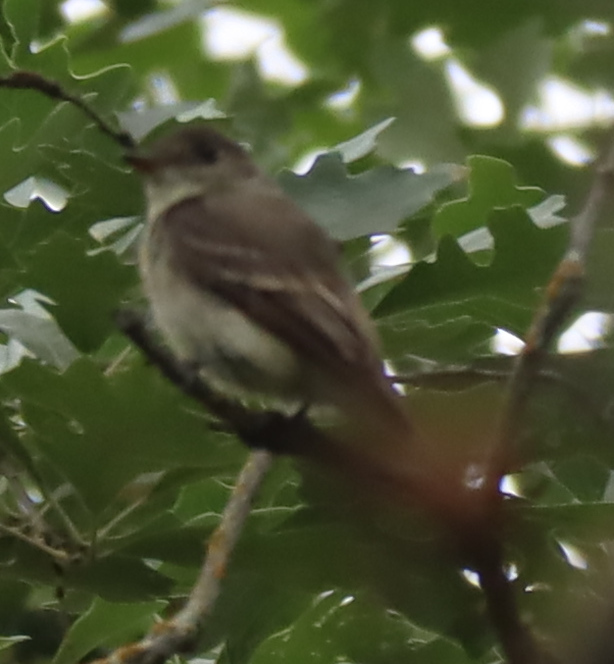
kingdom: Animalia
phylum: Chordata
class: Aves
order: Passeriformes
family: Tyrannidae
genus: Contopus
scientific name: Contopus virens
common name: Eastern wood-pewee
